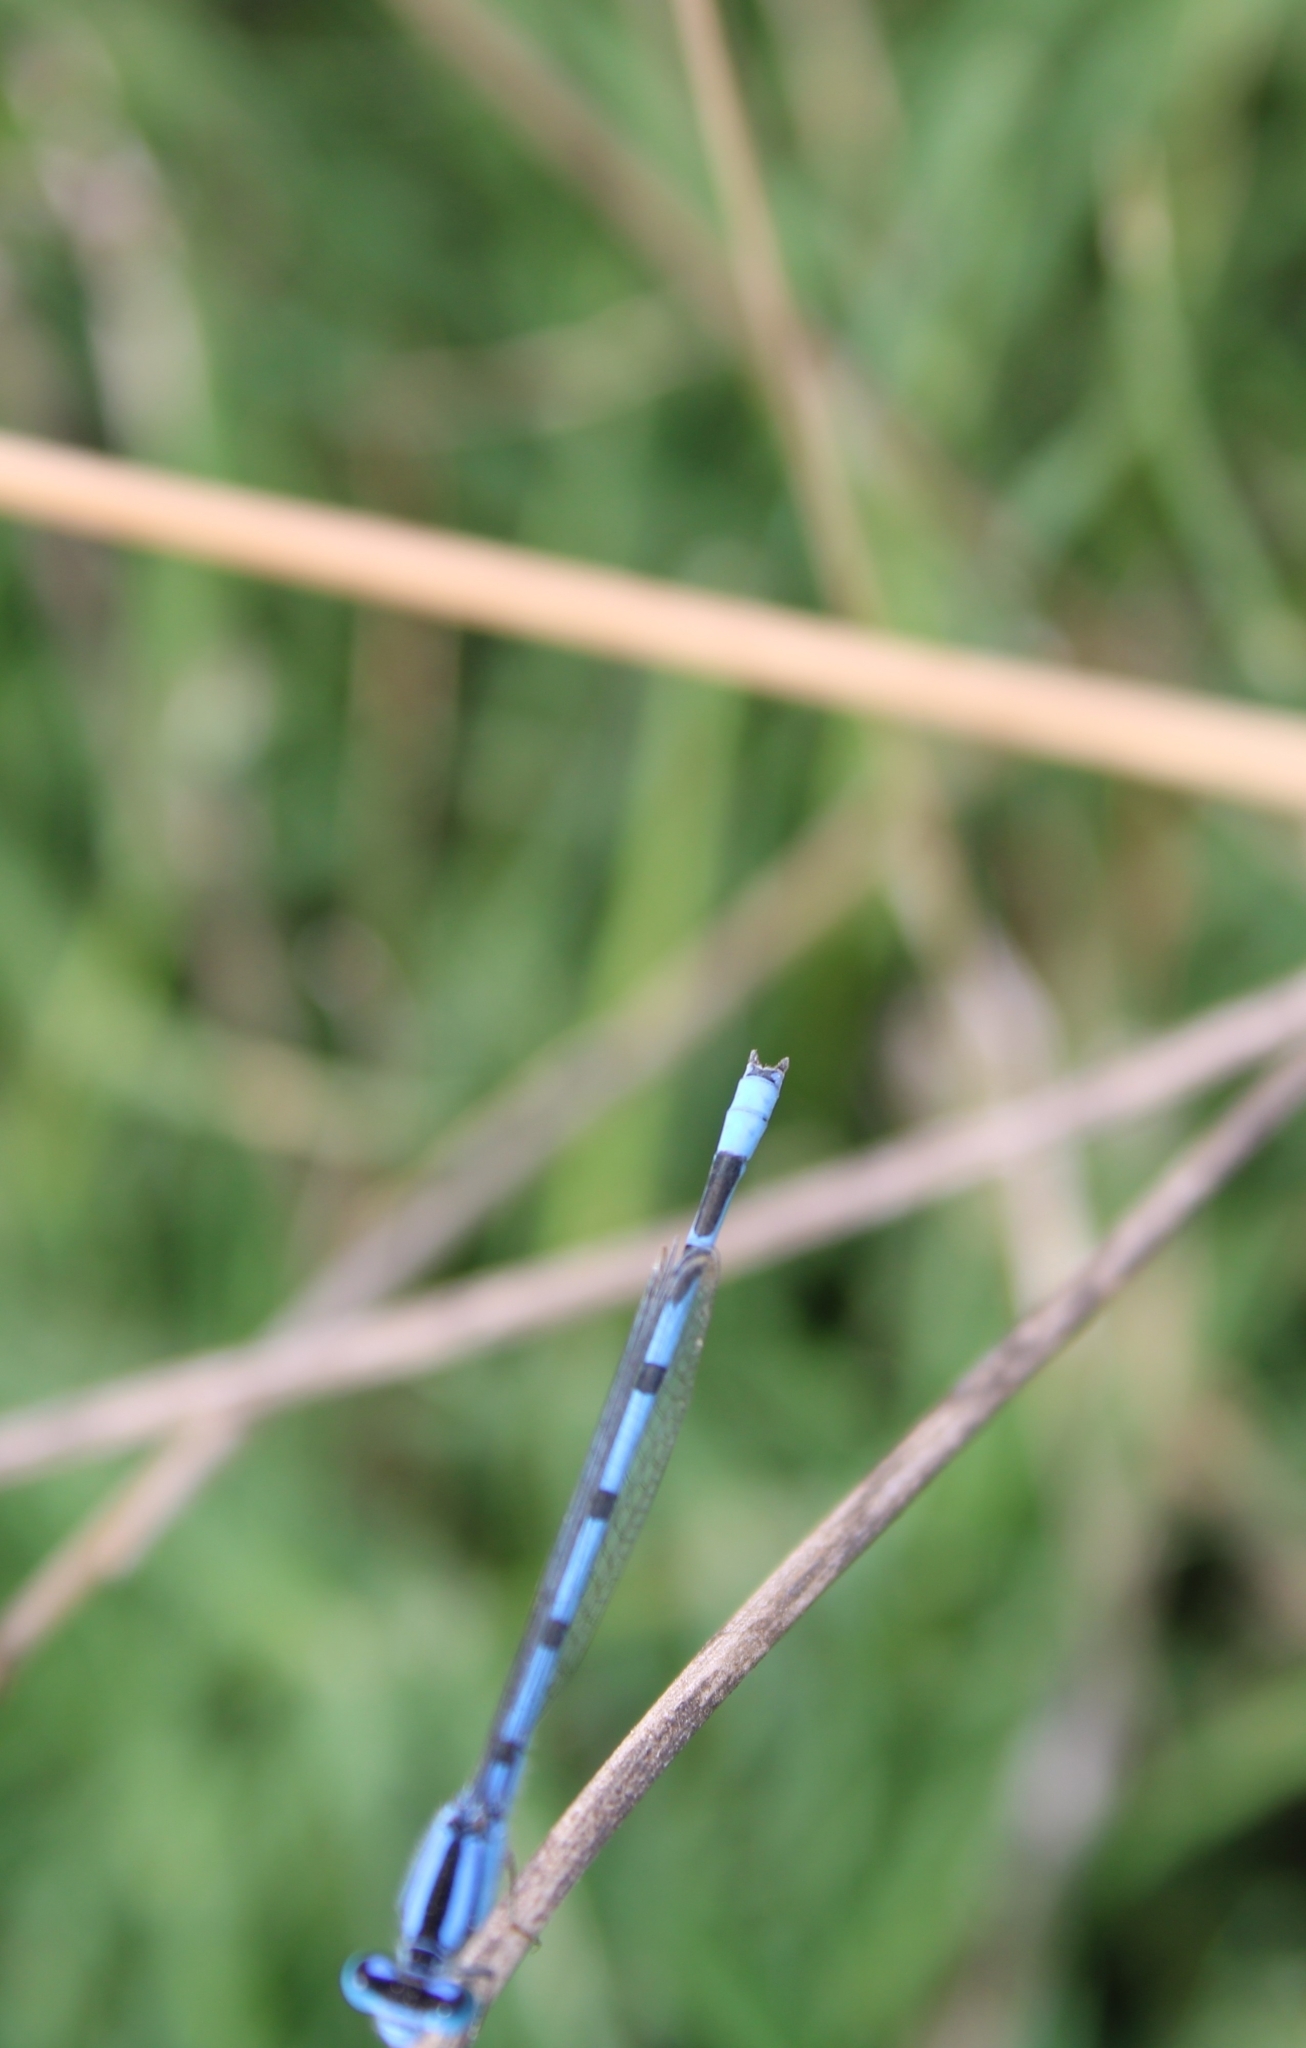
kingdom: Animalia
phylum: Arthropoda
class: Insecta
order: Odonata
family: Coenagrionidae
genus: Enallagma
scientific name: Enallagma civile
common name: Damselfly
